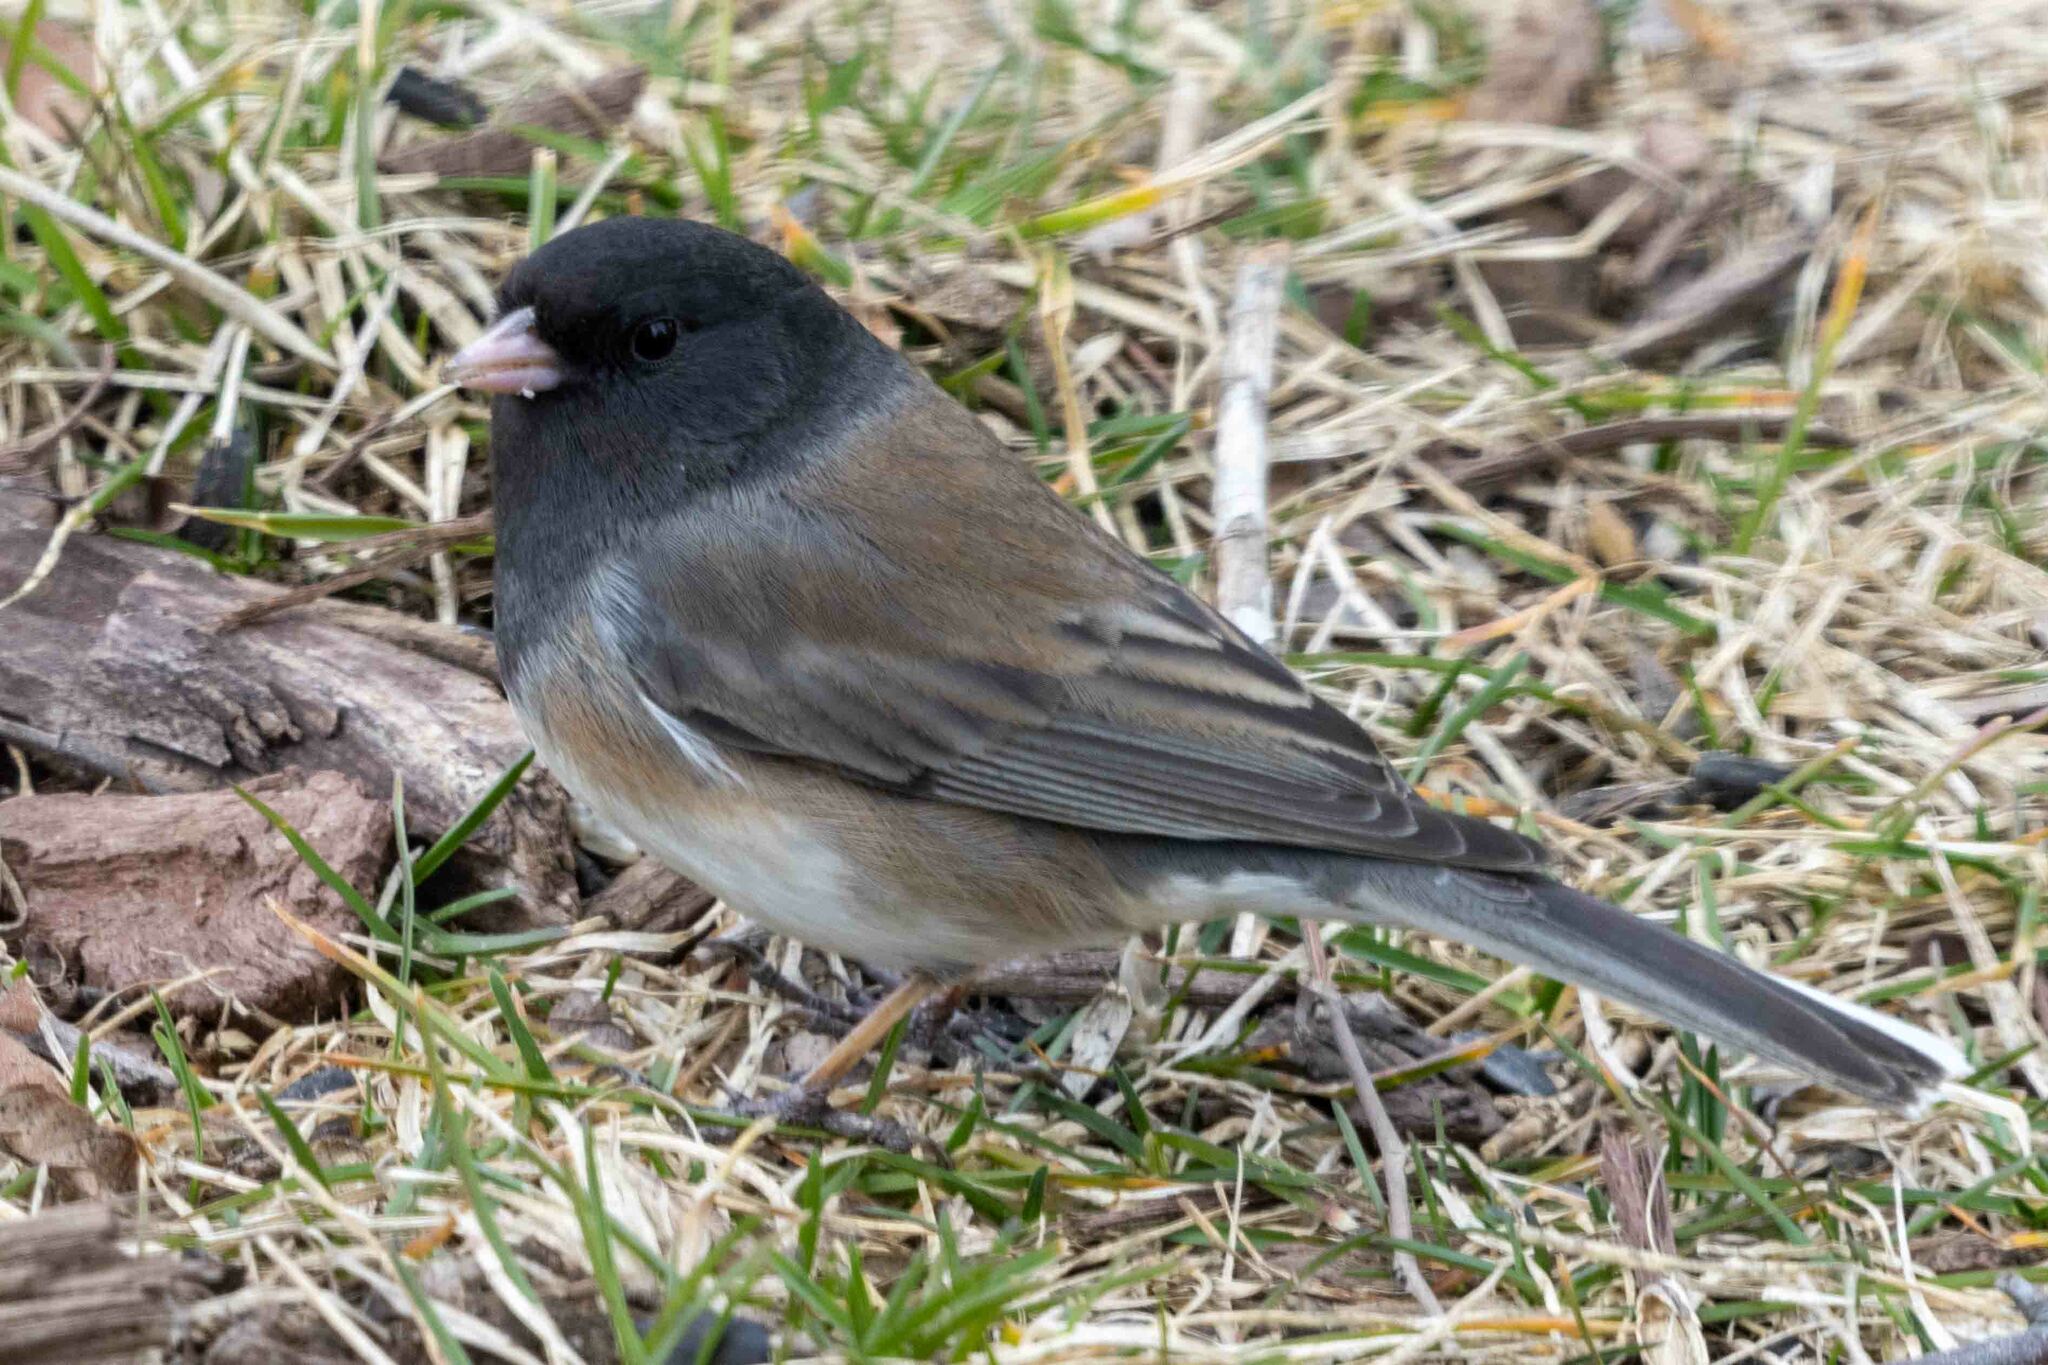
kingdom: Animalia
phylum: Chordata
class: Aves
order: Passeriformes
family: Passerellidae
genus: Junco
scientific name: Junco hyemalis
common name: Dark-eyed junco
